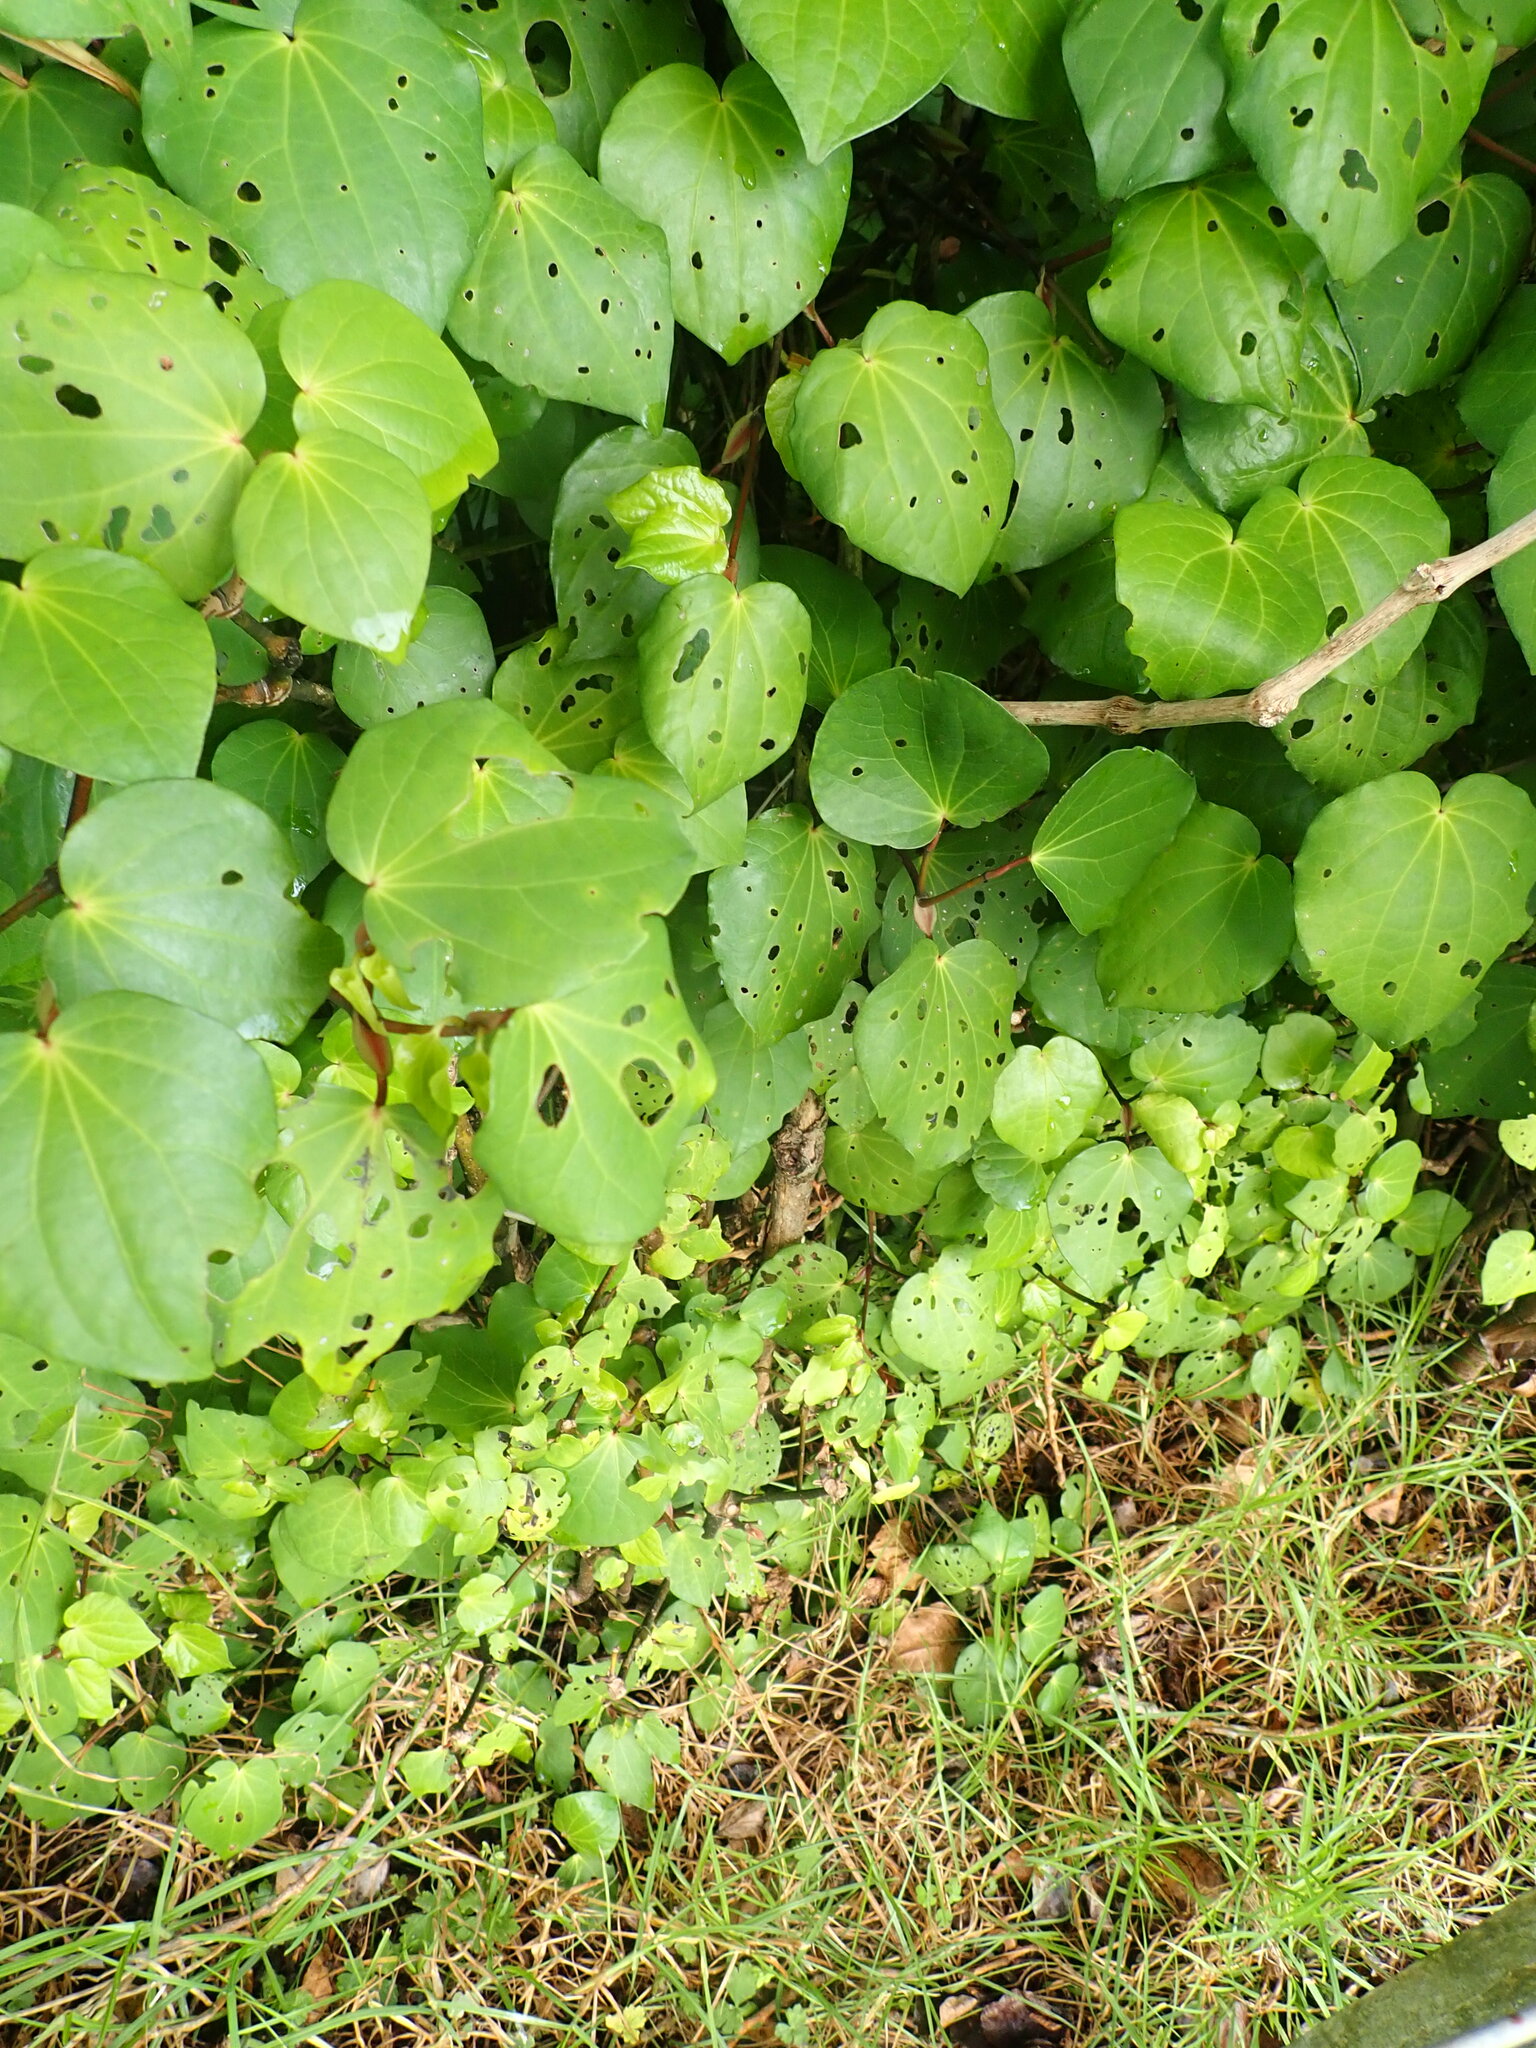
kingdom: Plantae
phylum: Tracheophyta
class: Magnoliopsida
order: Piperales
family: Piperaceae
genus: Macropiper
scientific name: Macropiper excelsum
